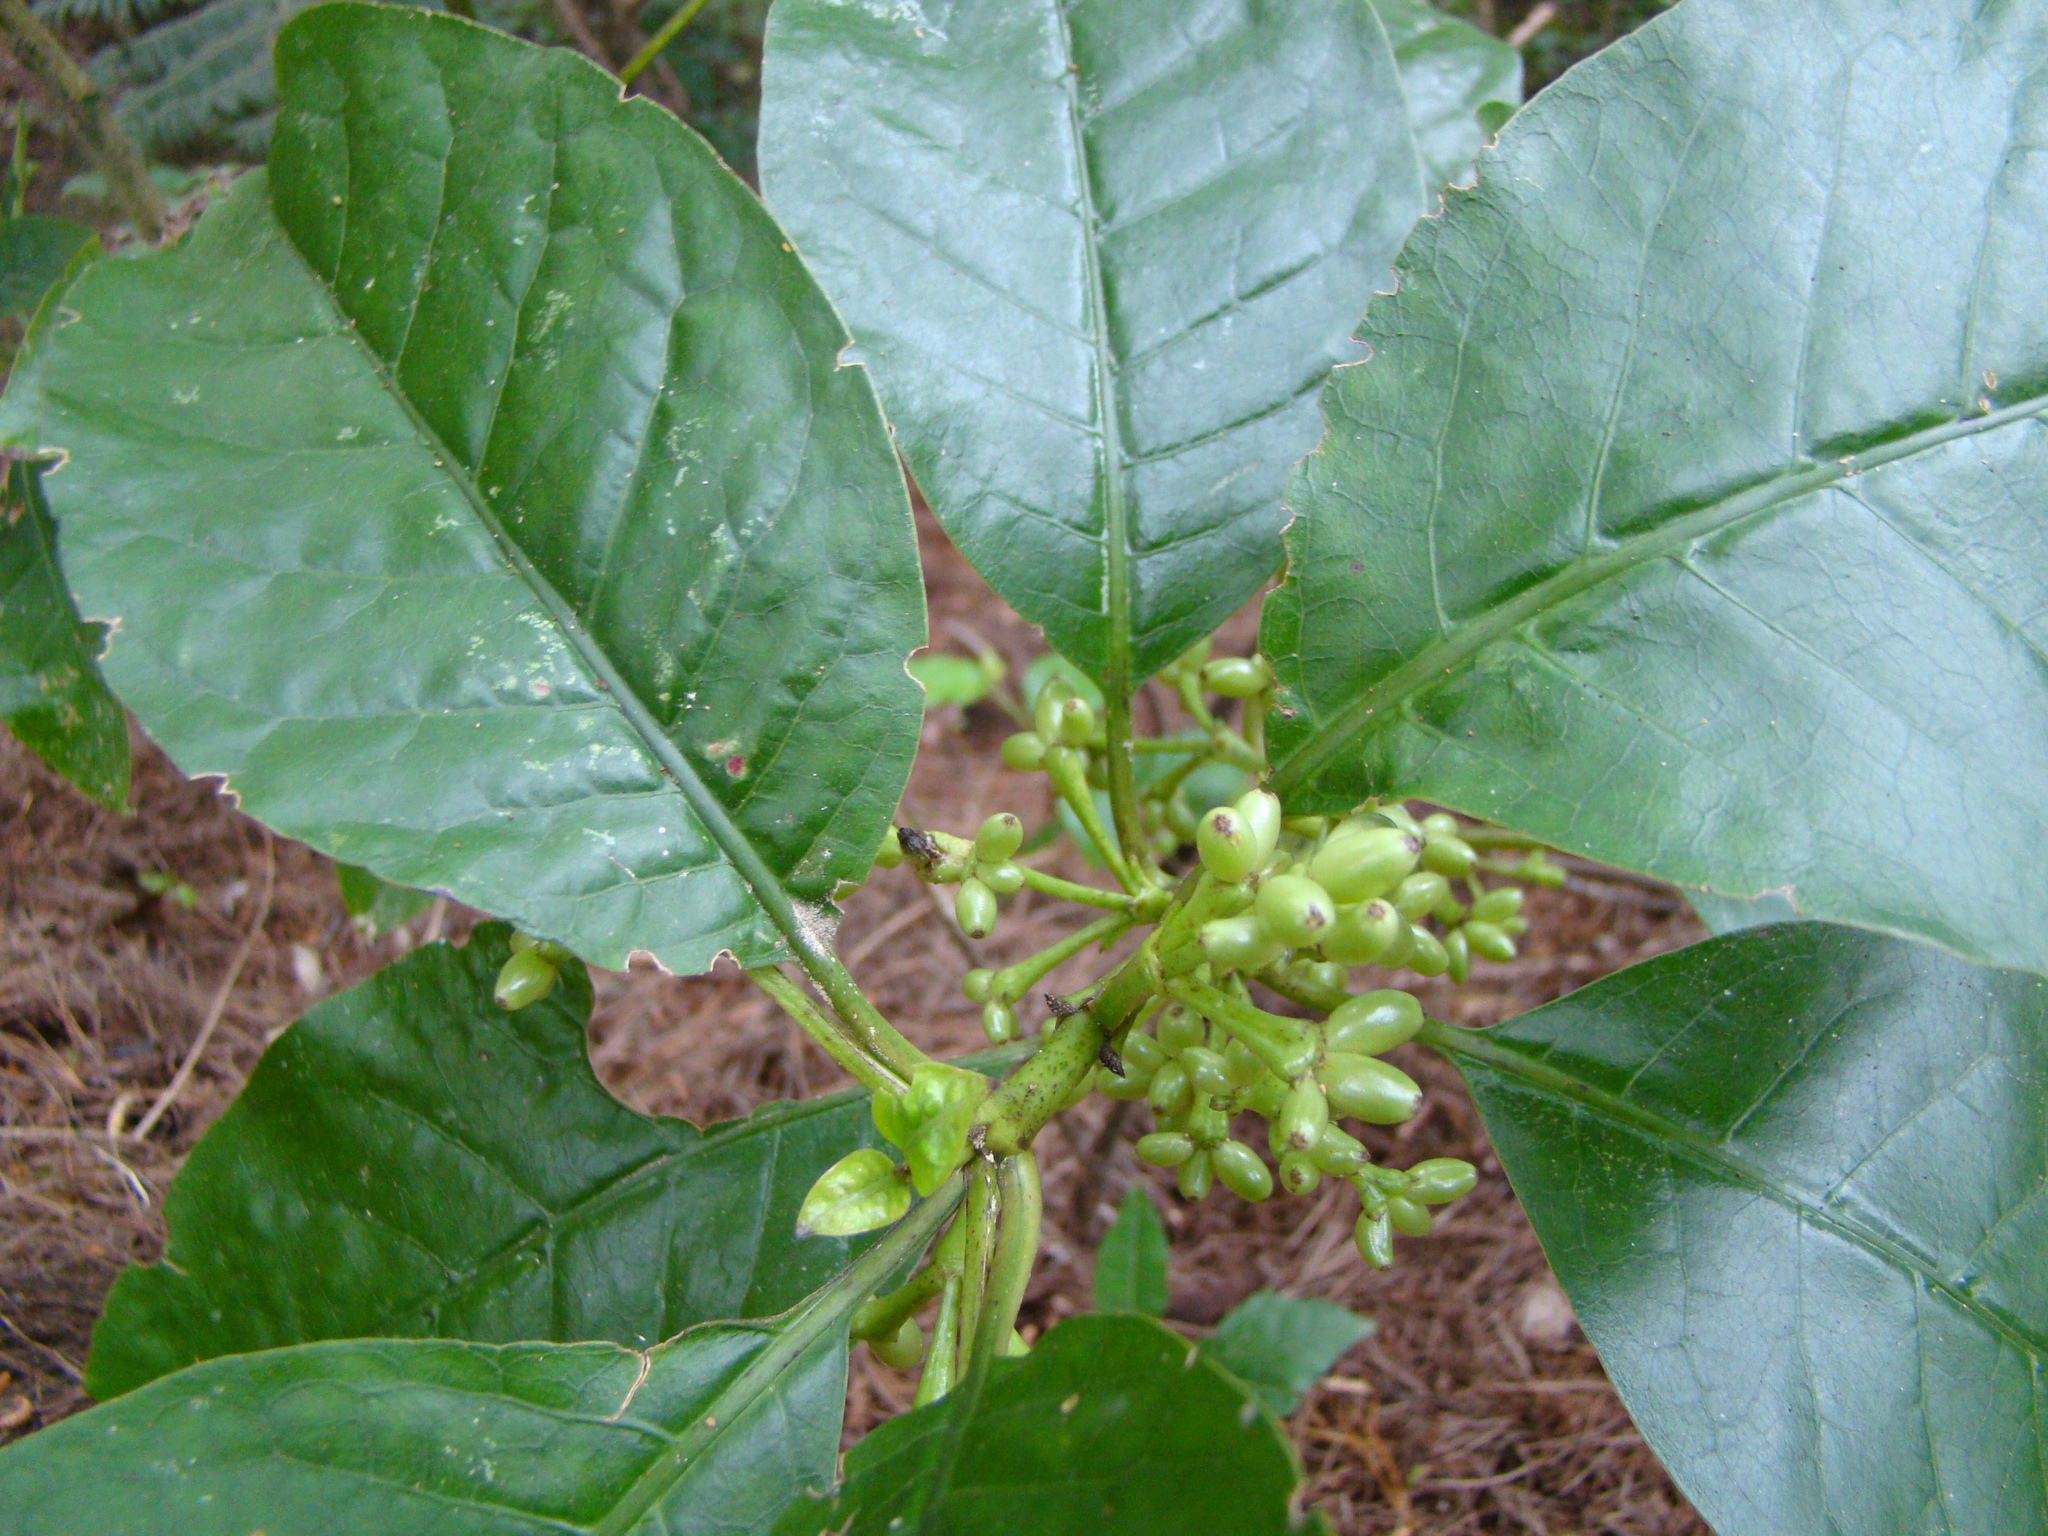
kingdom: Plantae
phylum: Tracheophyta
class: Magnoliopsida
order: Gentianales
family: Rubiaceae
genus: Coprosma
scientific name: Coprosma autumnalis
